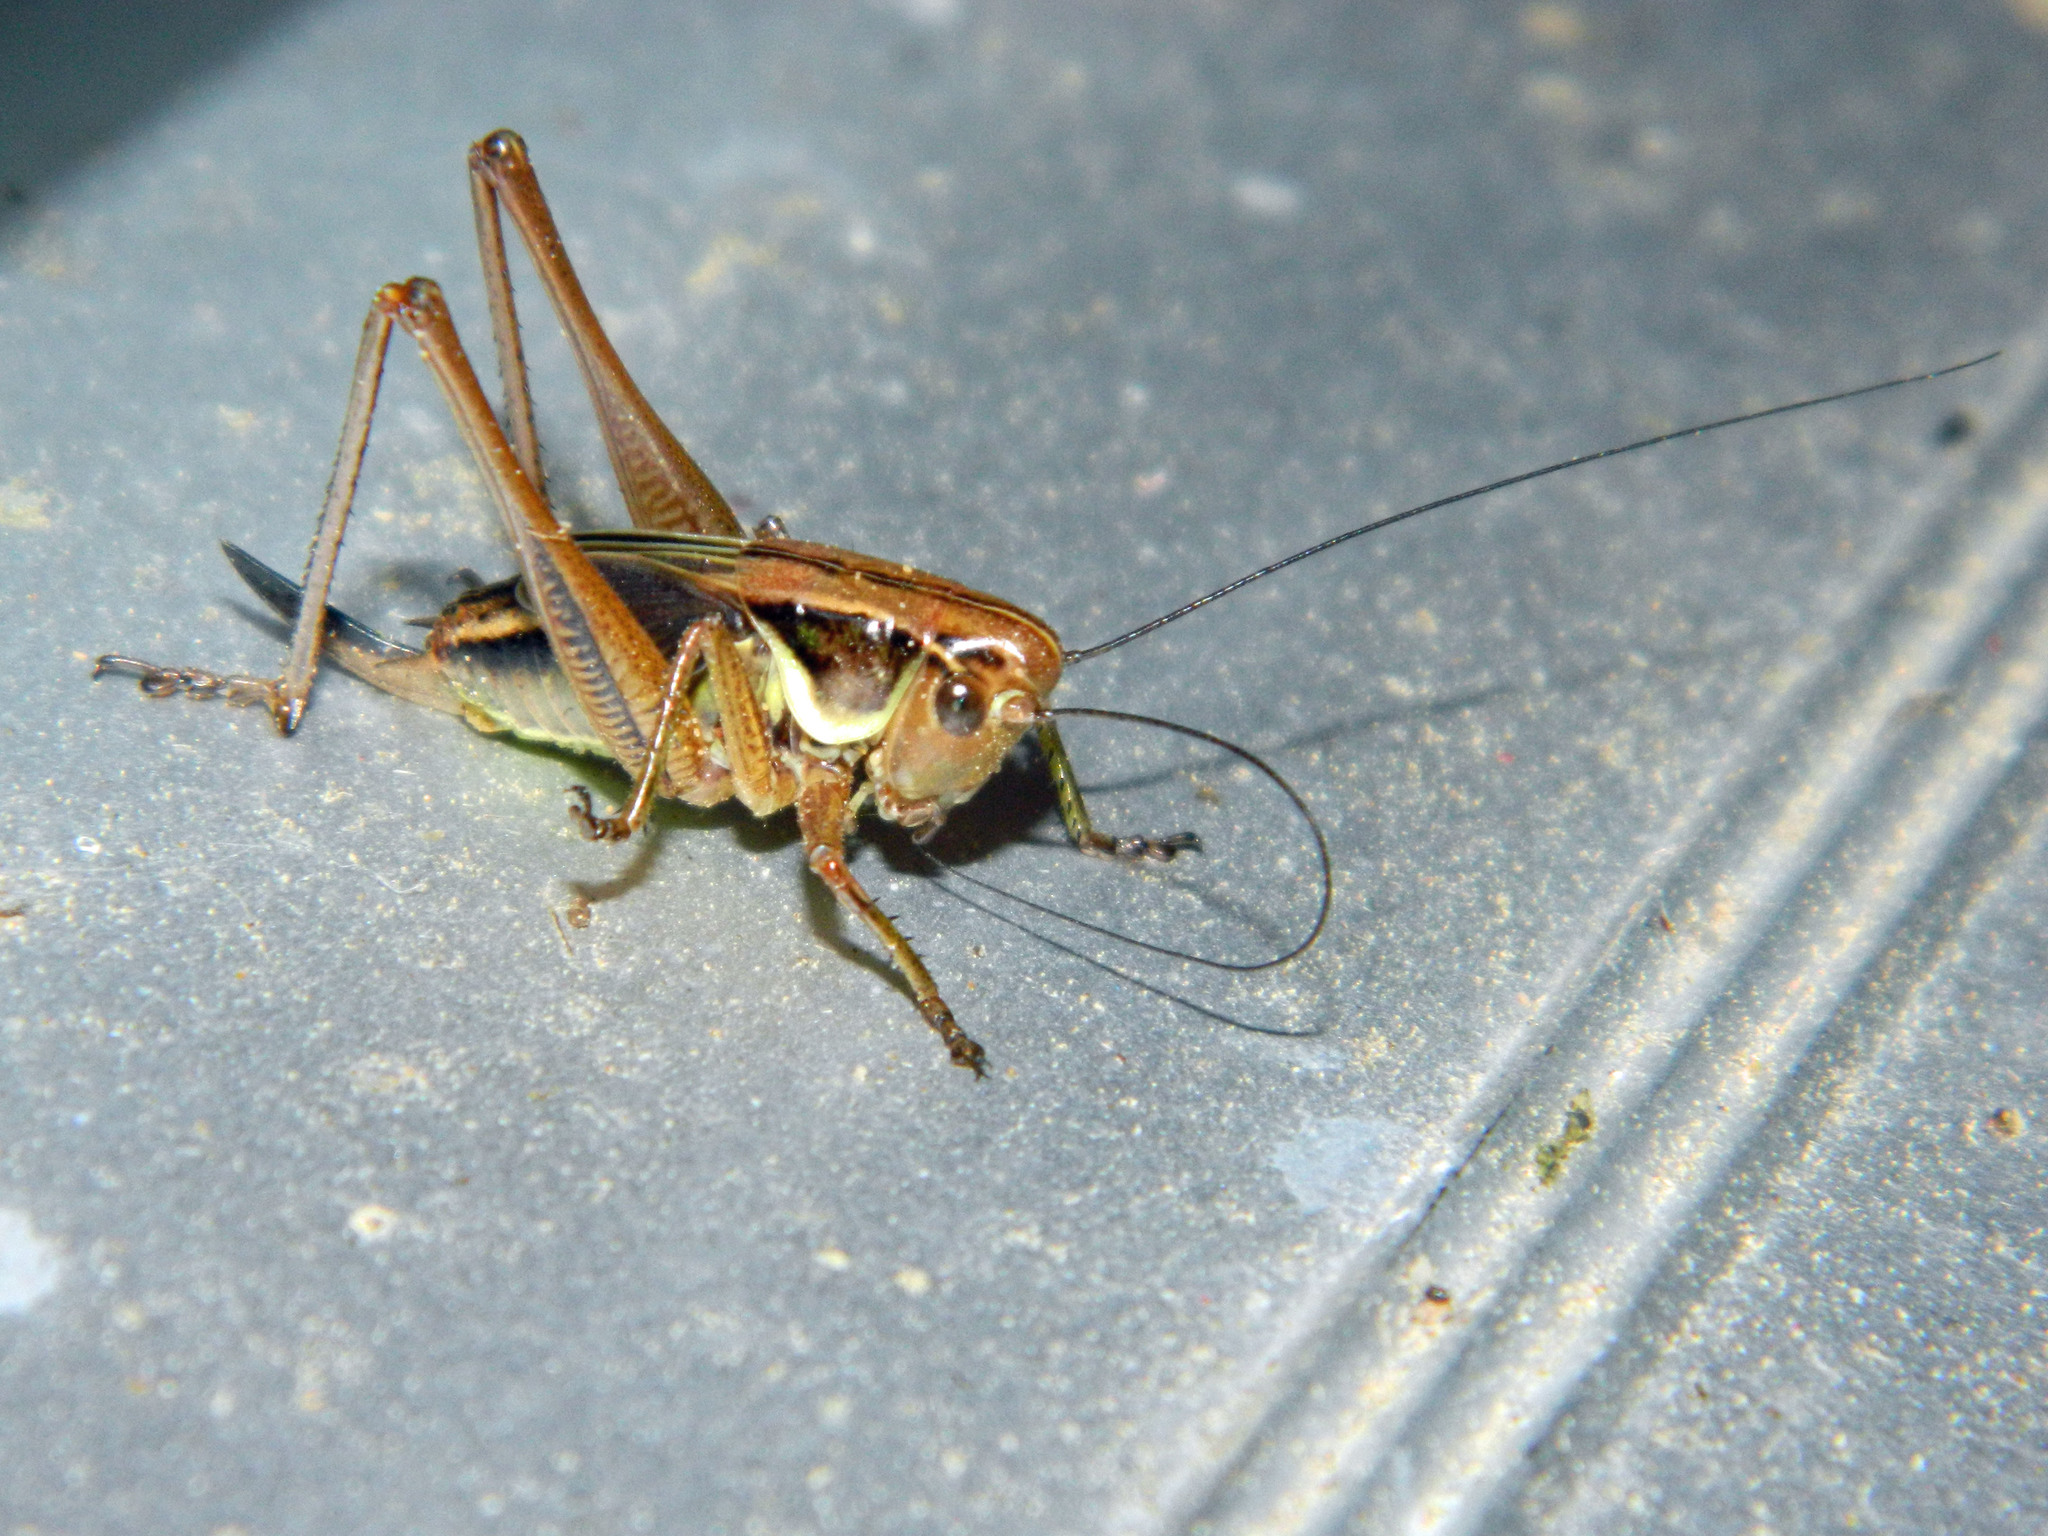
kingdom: Animalia
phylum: Arthropoda
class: Insecta
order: Orthoptera
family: Tettigoniidae
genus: Roeseliana
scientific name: Roeseliana roeselii
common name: Roesel's bush cricket
